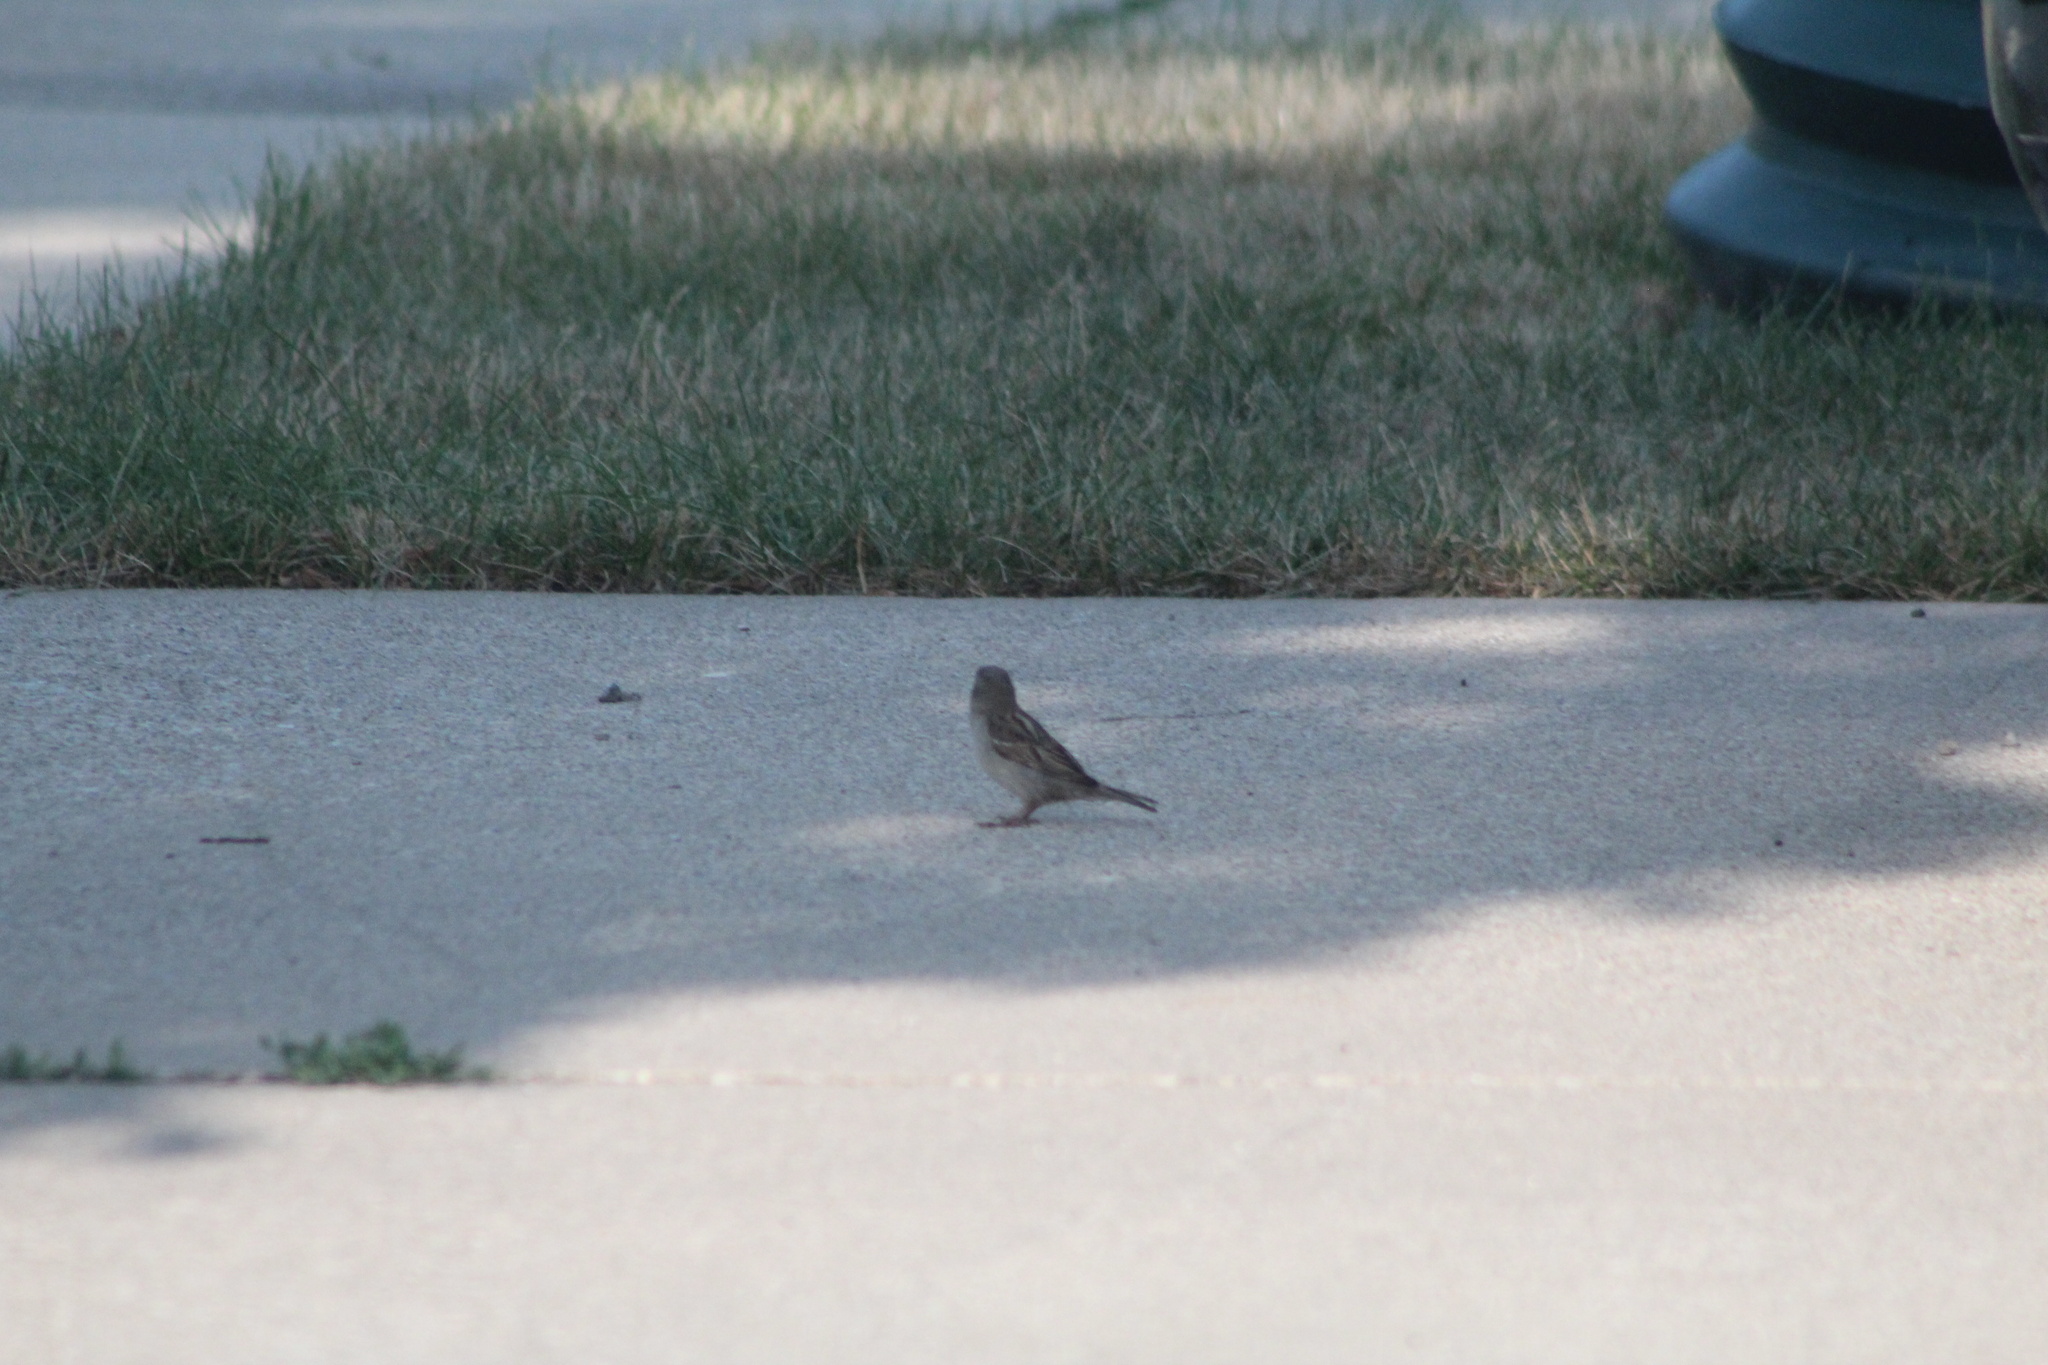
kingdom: Animalia
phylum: Chordata
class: Aves
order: Passeriformes
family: Passeridae
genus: Passer
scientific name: Passer domesticus
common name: House sparrow
